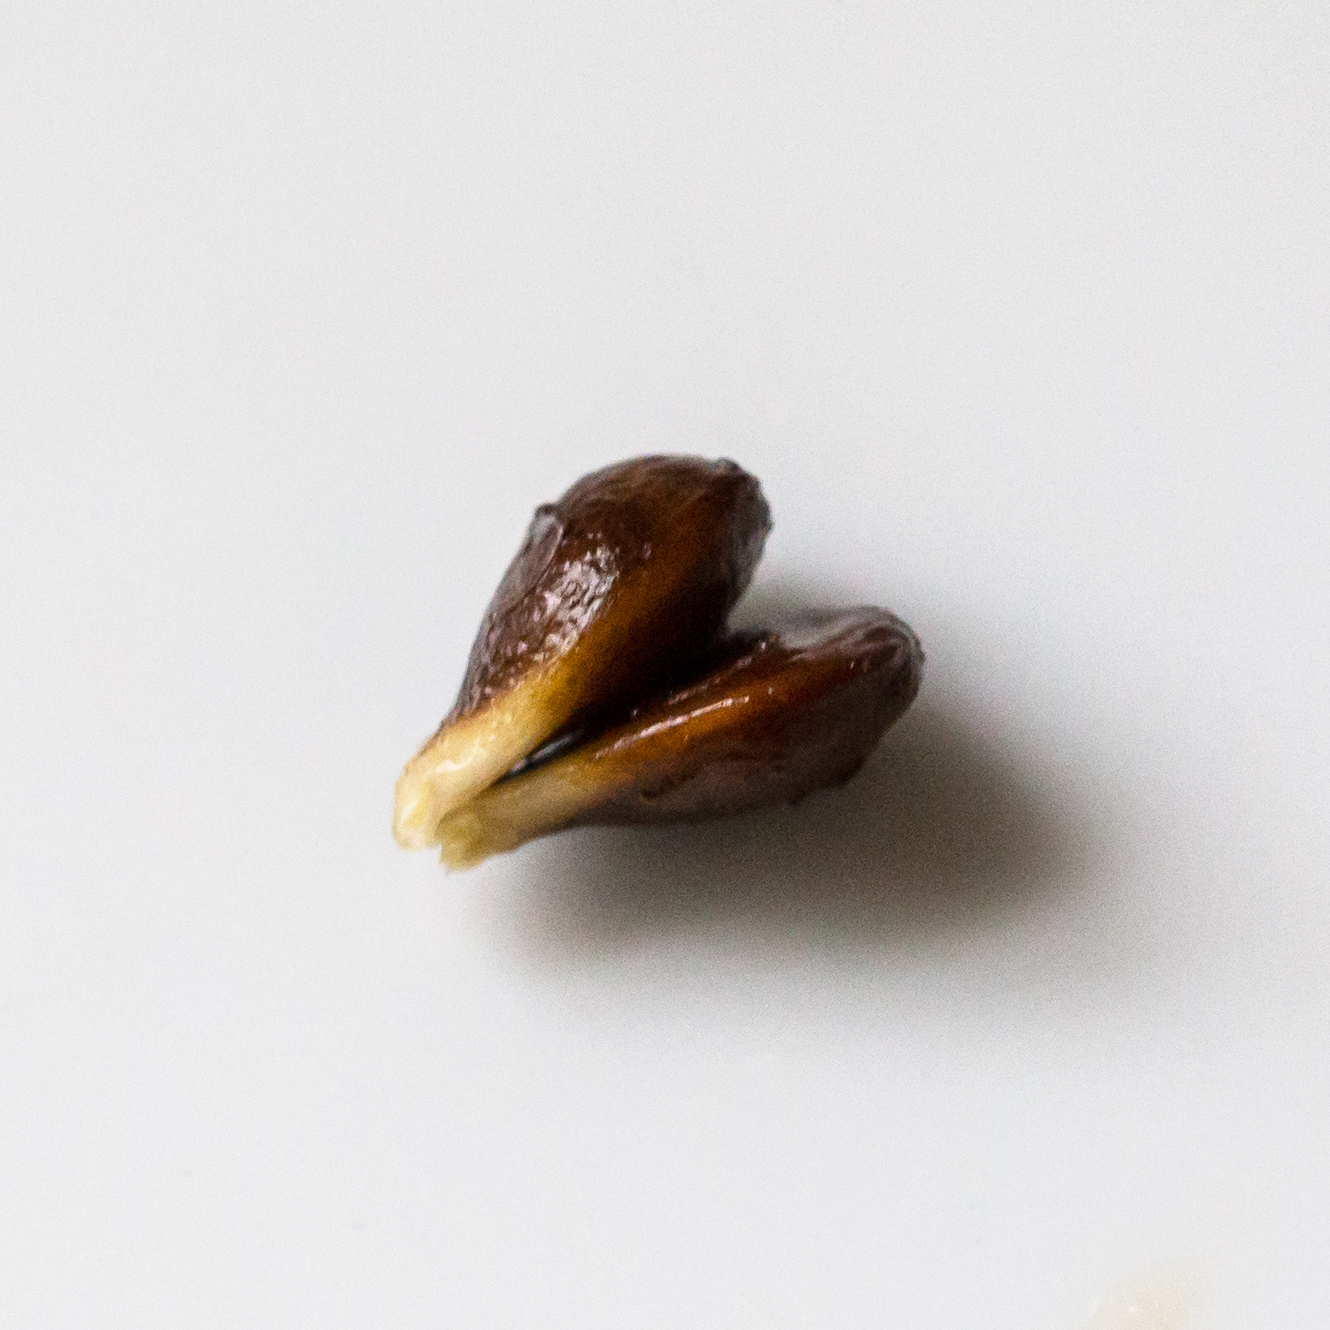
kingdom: Plantae
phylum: Tracheophyta
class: Magnoliopsida
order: Rosales
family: Rosaceae
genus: Pyrus
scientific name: Pyrus calleryana
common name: Callery pear
